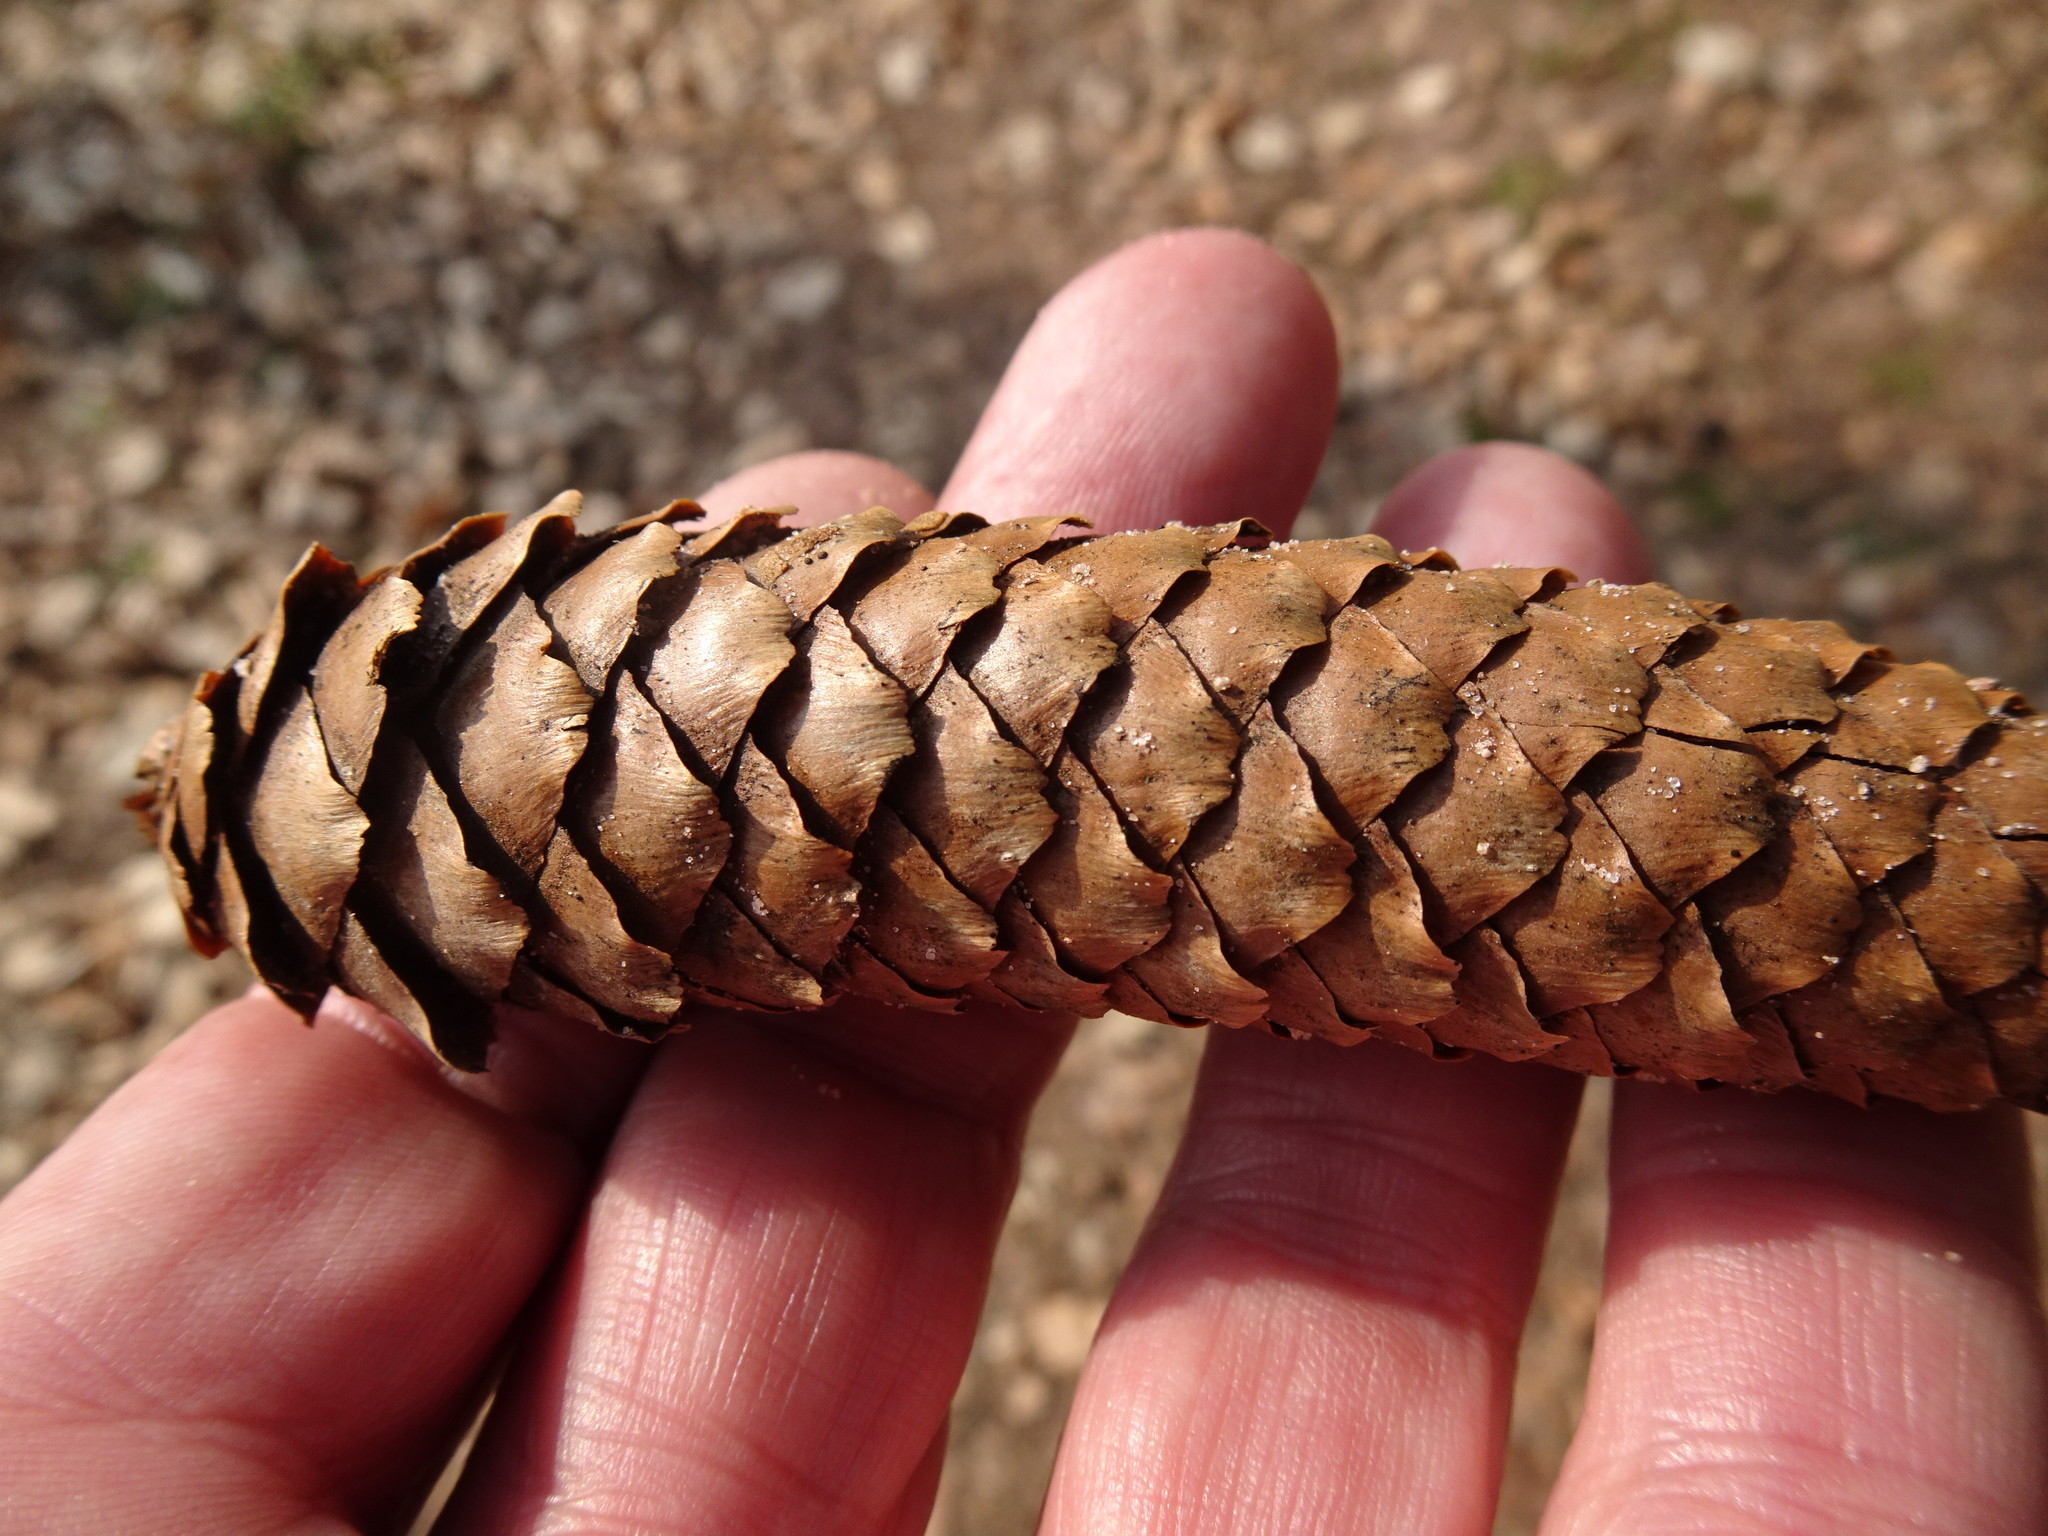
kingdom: Plantae
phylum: Tracheophyta
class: Pinopsida
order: Pinales
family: Pinaceae
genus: Picea
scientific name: Picea abies
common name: Norway spruce
